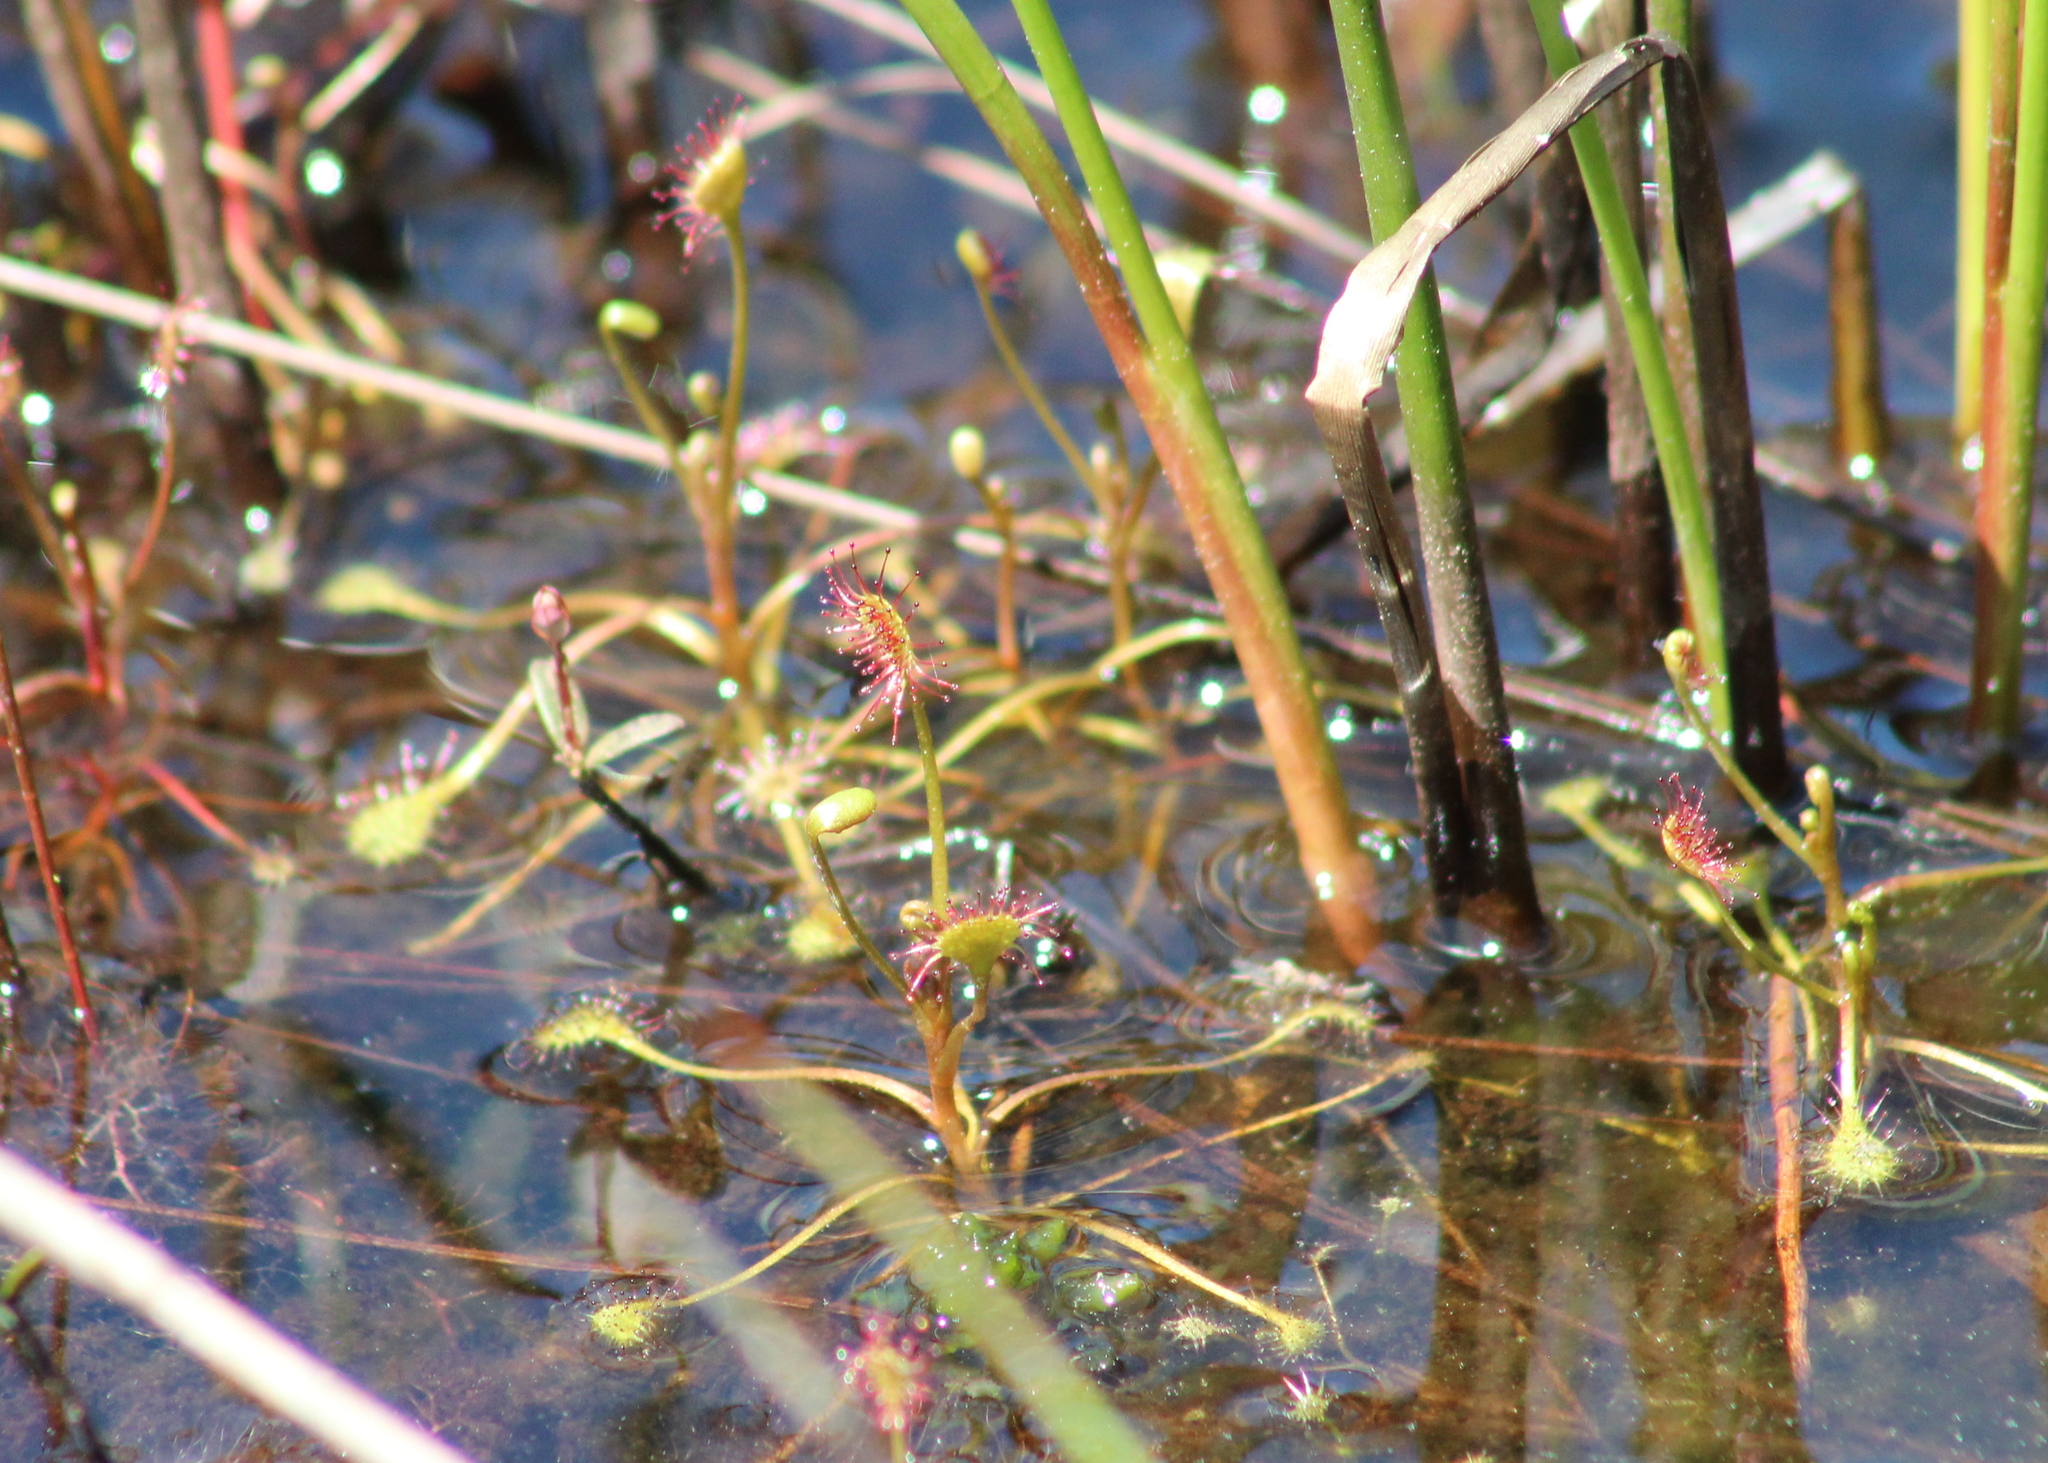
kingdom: Plantae
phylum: Tracheophyta
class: Magnoliopsida
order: Caryophyllales
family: Droseraceae
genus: Drosera
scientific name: Drosera intermedia
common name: Oblong-leaved sundew
